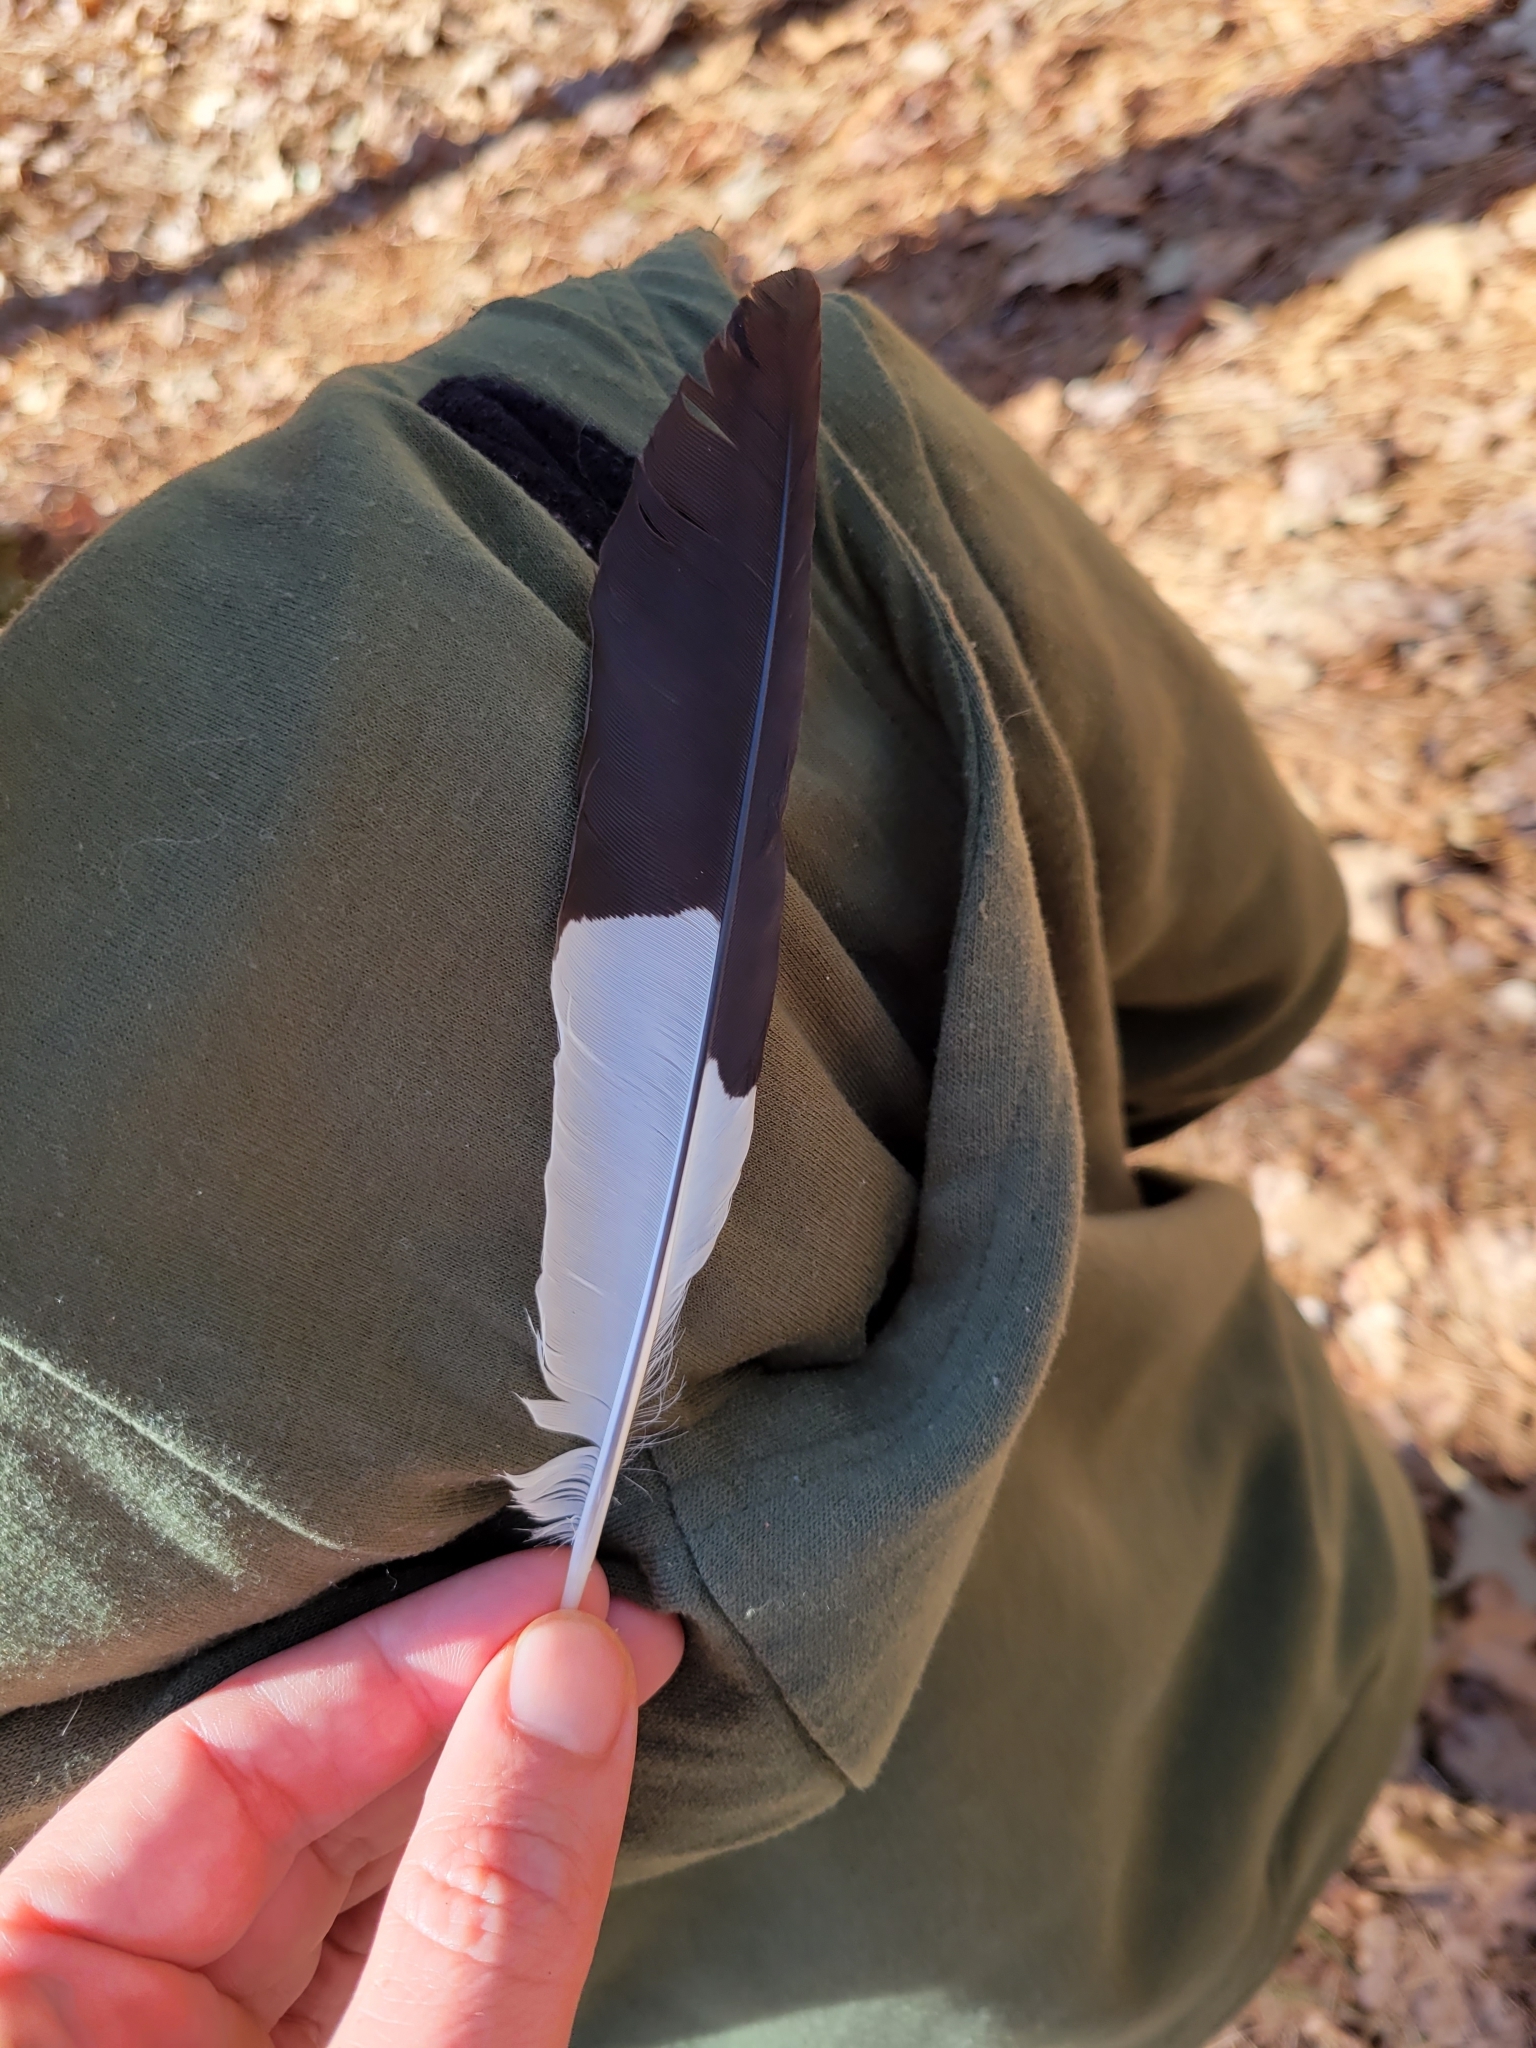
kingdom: Animalia
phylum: Chordata
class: Aves
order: Piciformes
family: Picidae
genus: Dryocopus
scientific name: Dryocopus pileatus
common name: Pileated woodpecker
